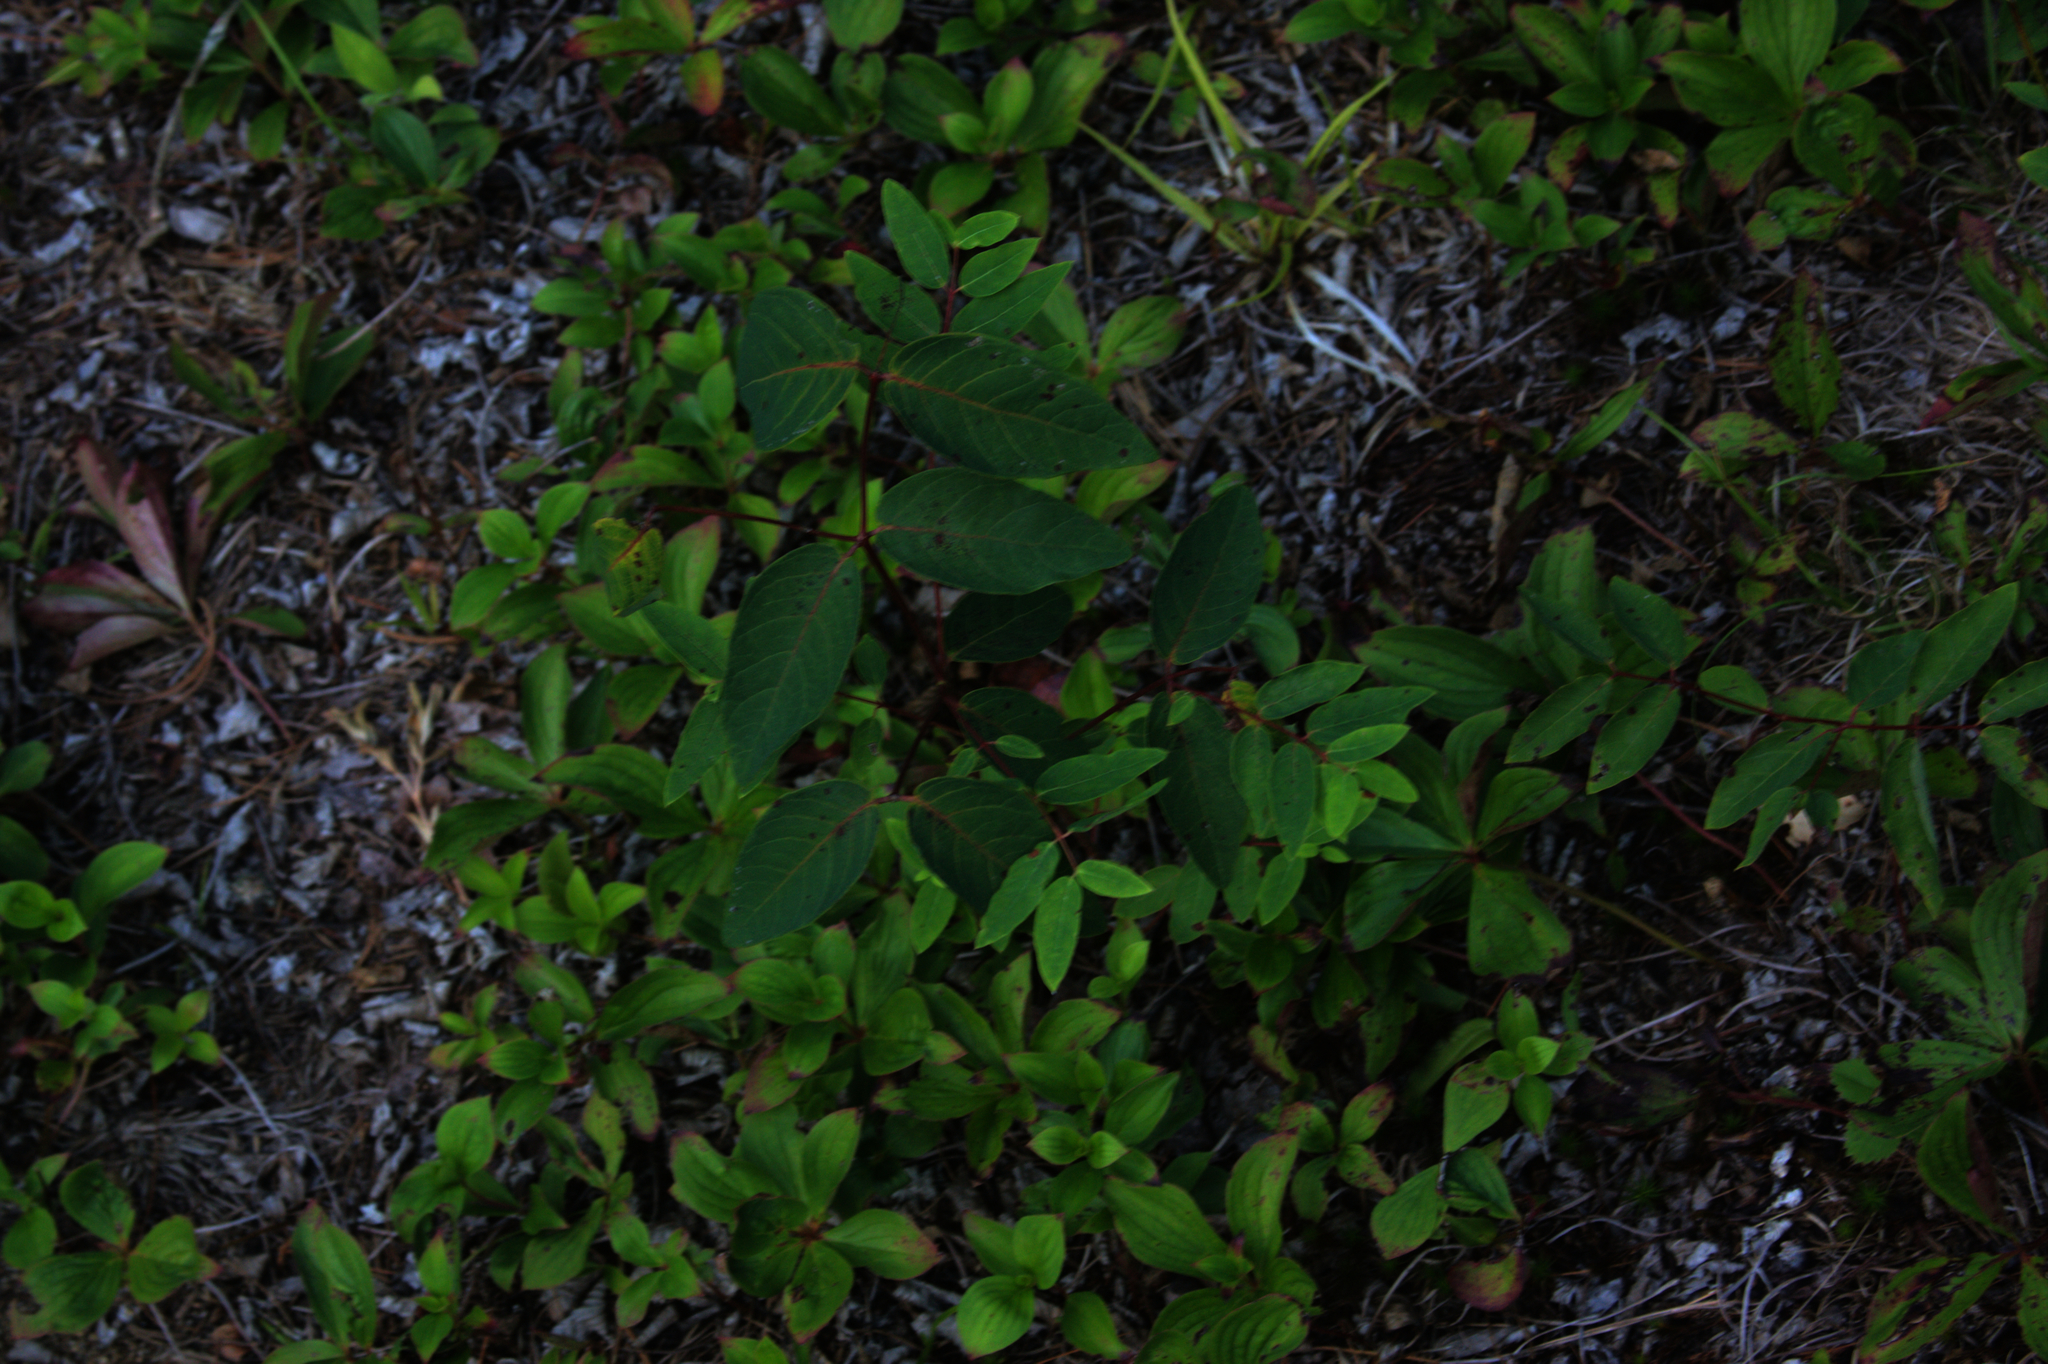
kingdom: Plantae
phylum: Tracheophyta
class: Magnoliopsida
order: Gentianales
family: Apocynaceae
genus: Apocynum
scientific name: Apocynum androsaemifolium
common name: Spreading dogbane
